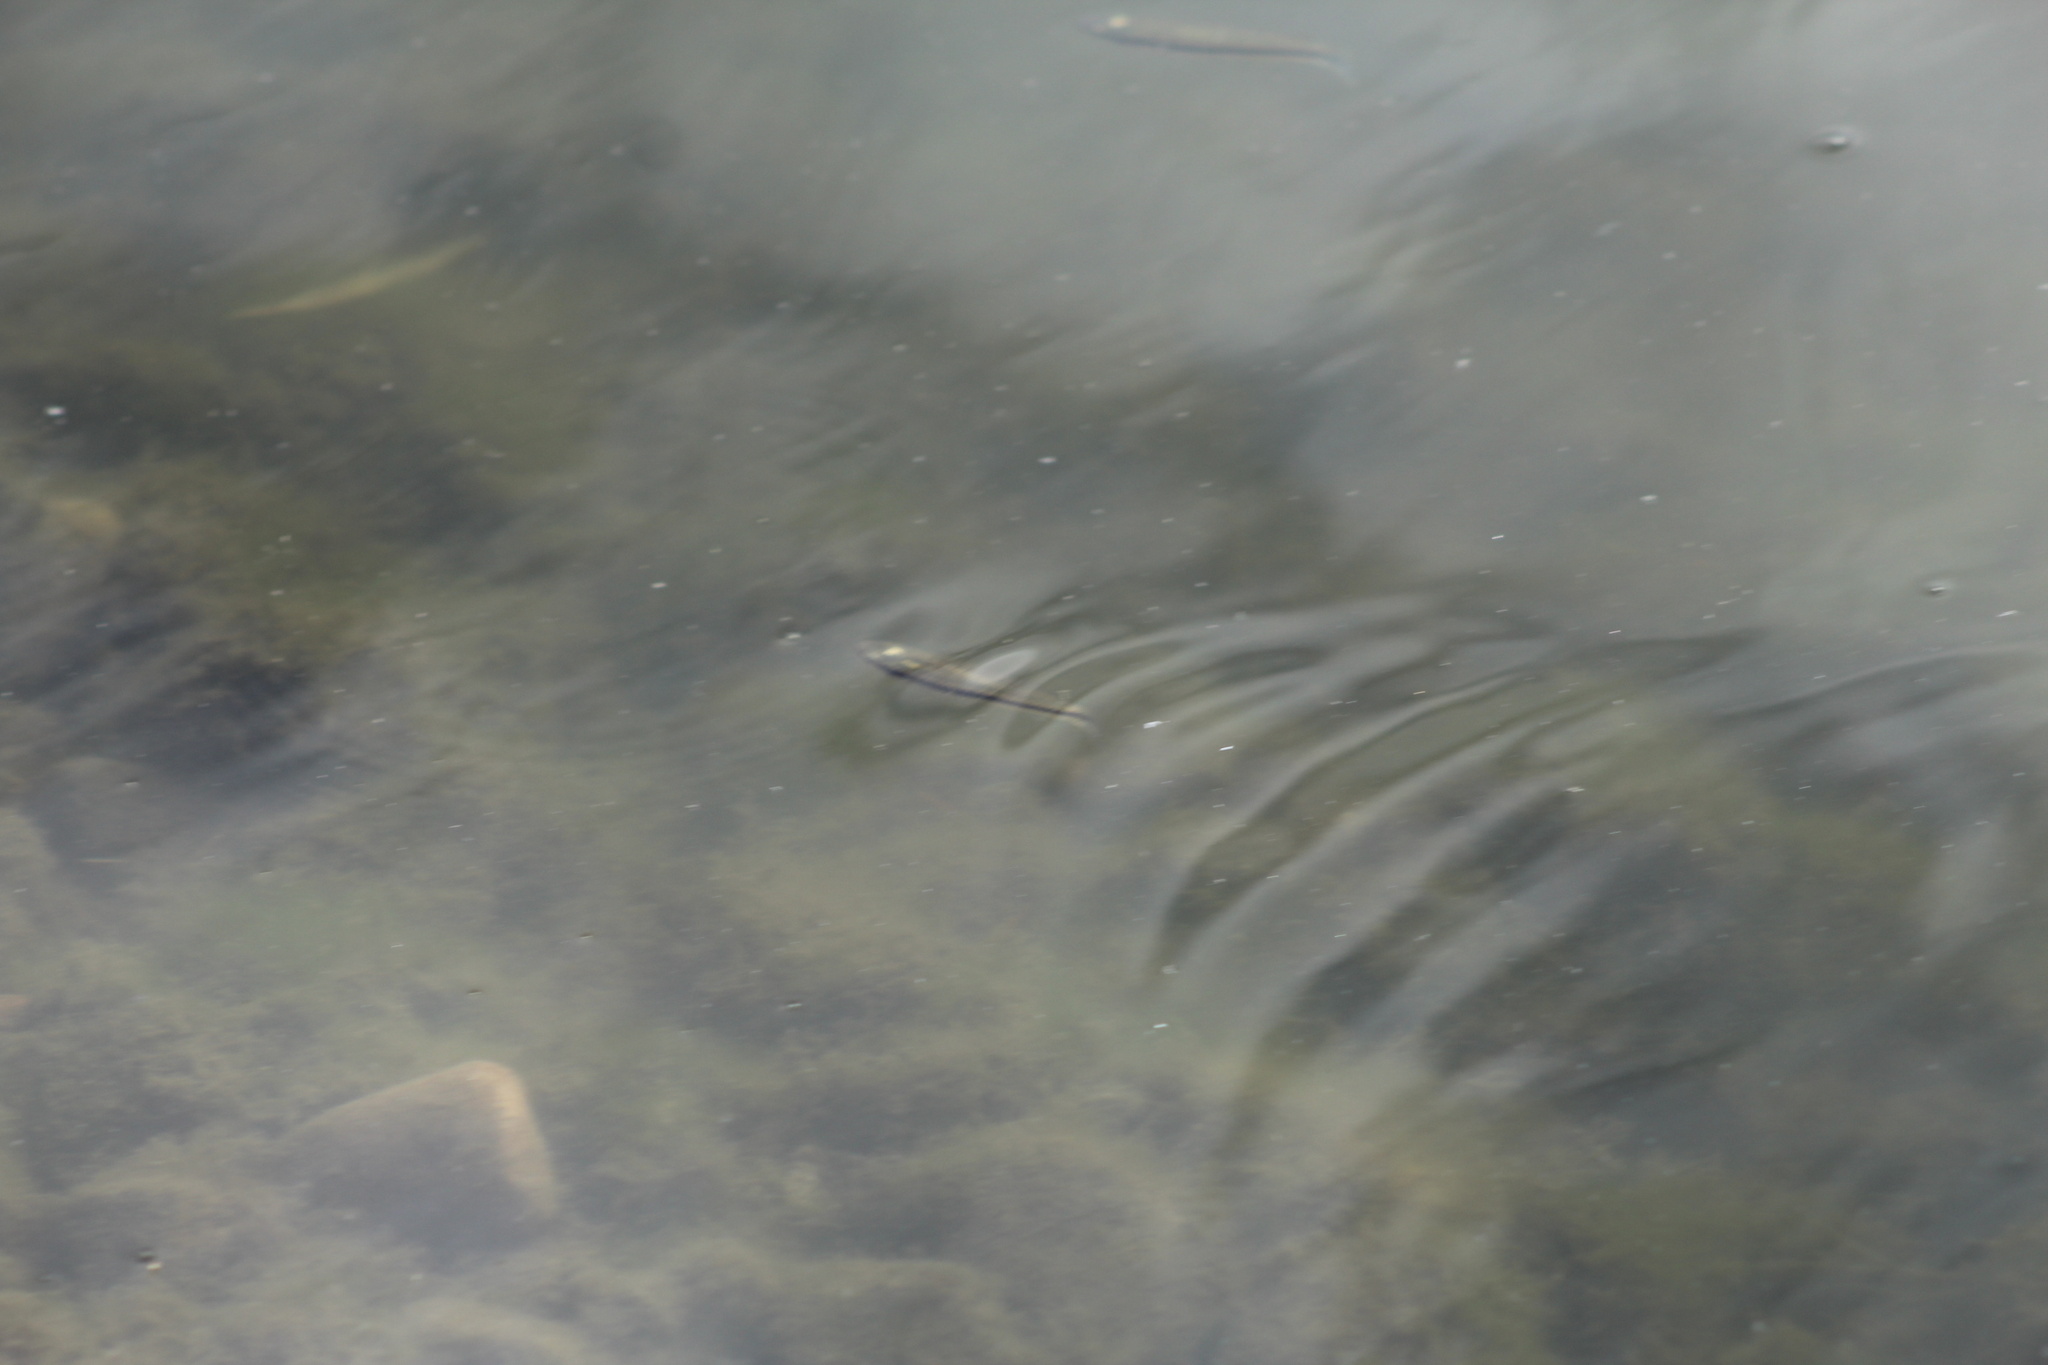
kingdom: Animalia
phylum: Chordata
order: Cyprinodontiformes
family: Fundulidae
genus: Fundulus
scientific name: Fundulus notatus
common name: Blackstripe topminnow
